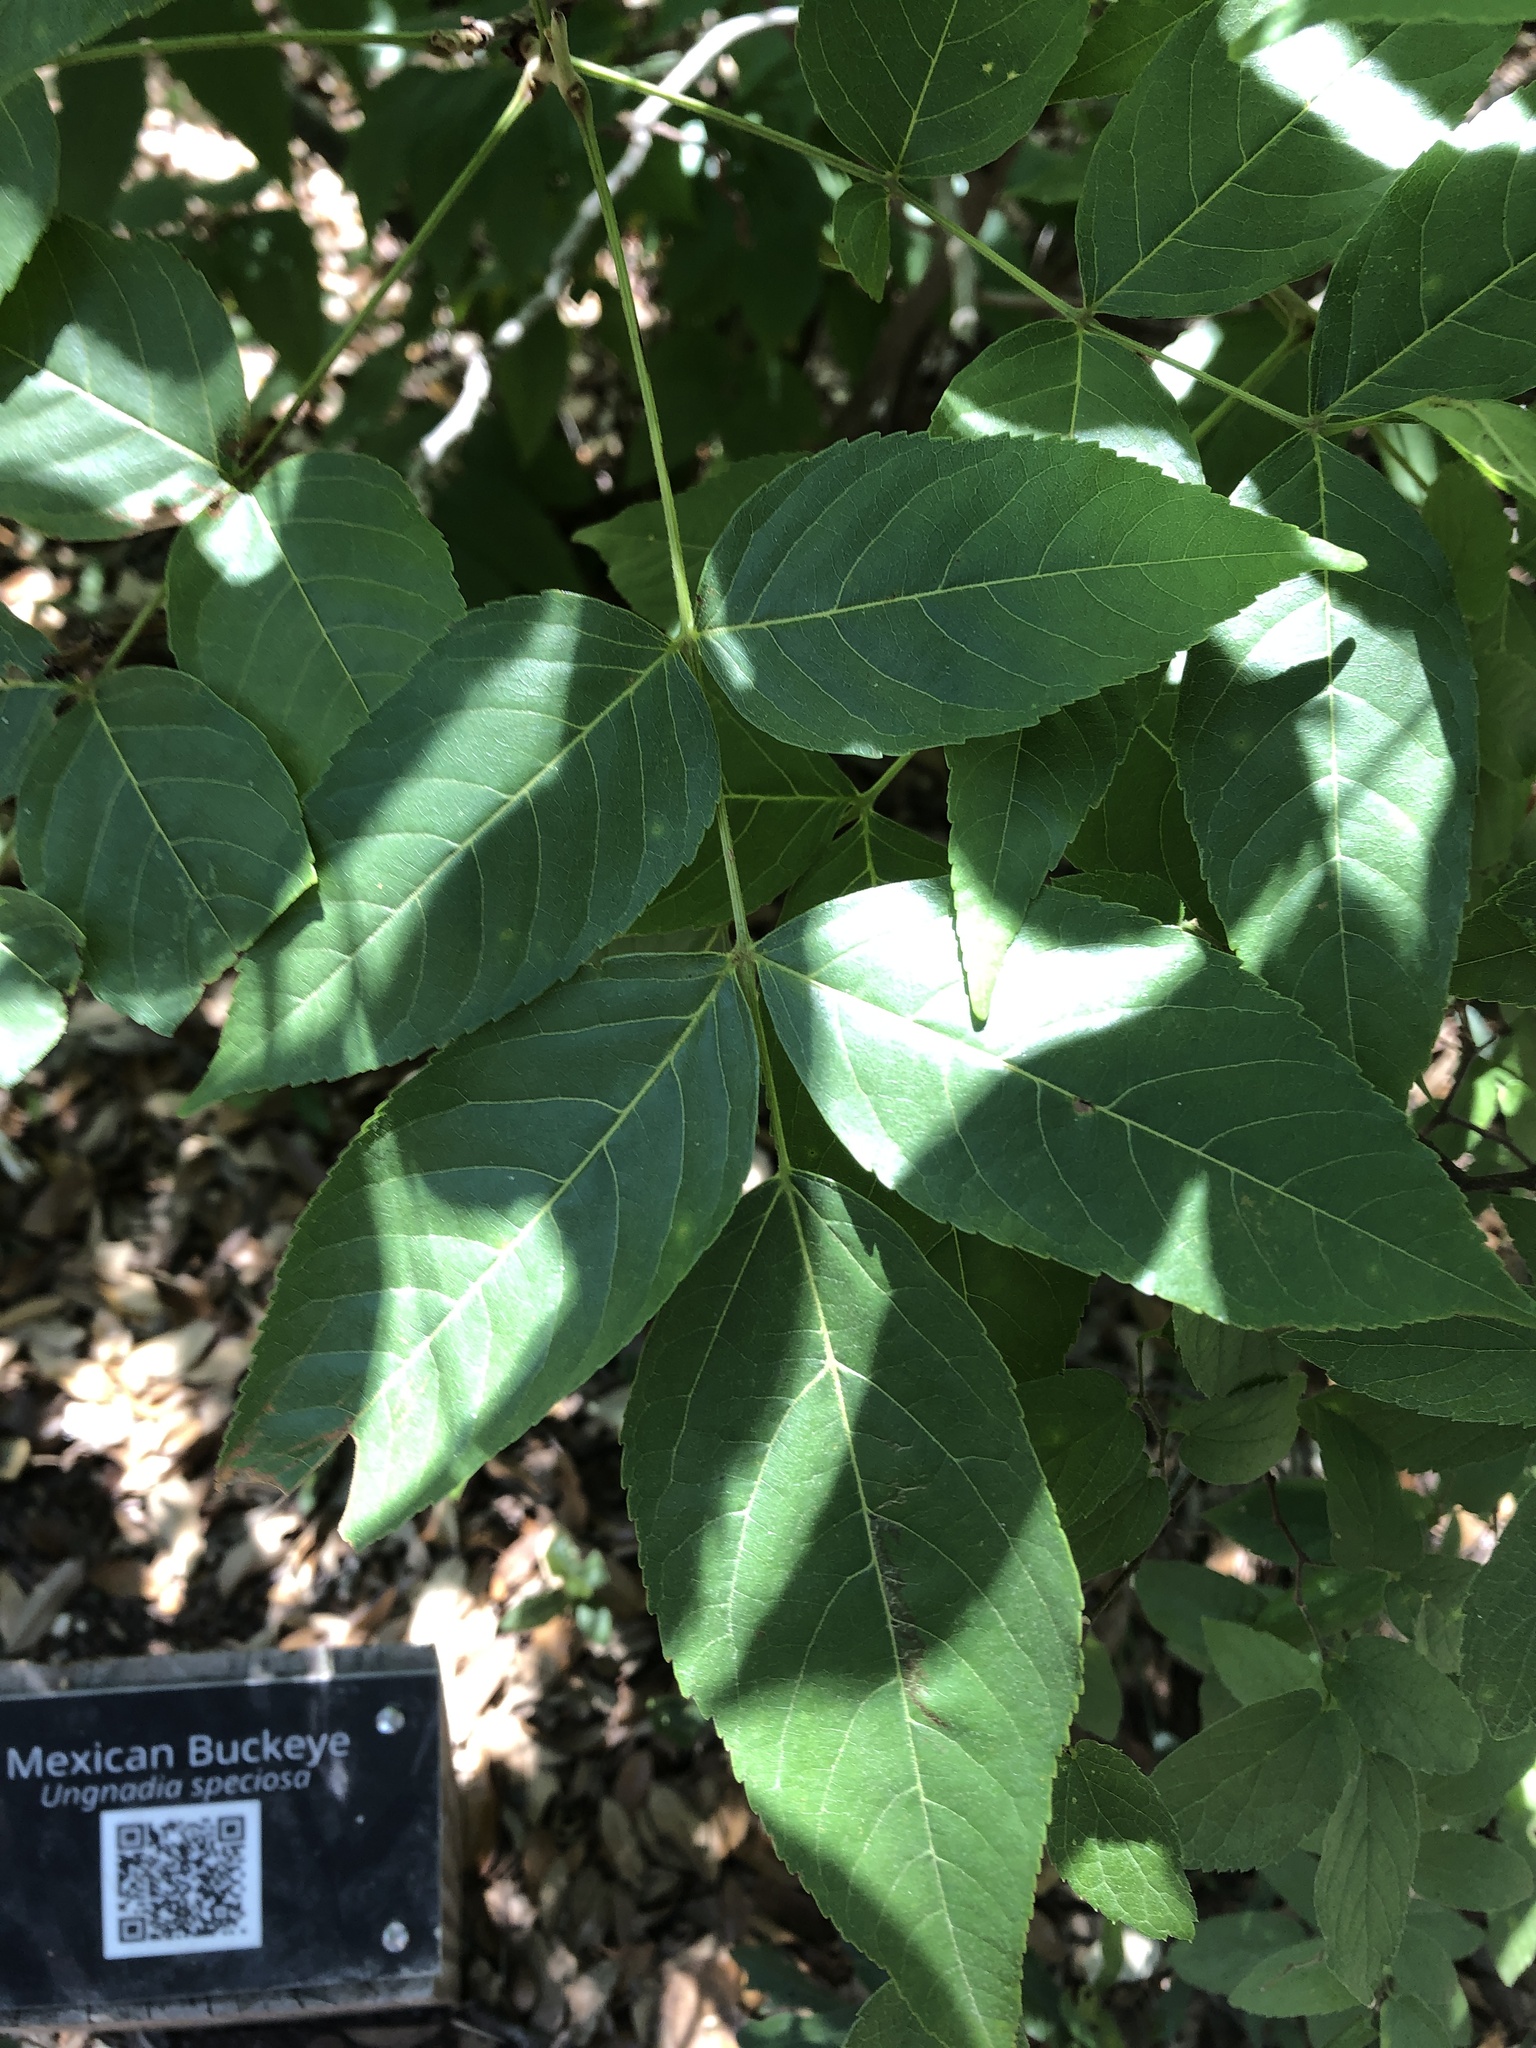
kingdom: Plantae
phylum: Tracheophyta
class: Magnoliopsida
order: Sapindales
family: Sapindaceae
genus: Ungnadia
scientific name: Ungnadia speciosa
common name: Texas-buckeye
